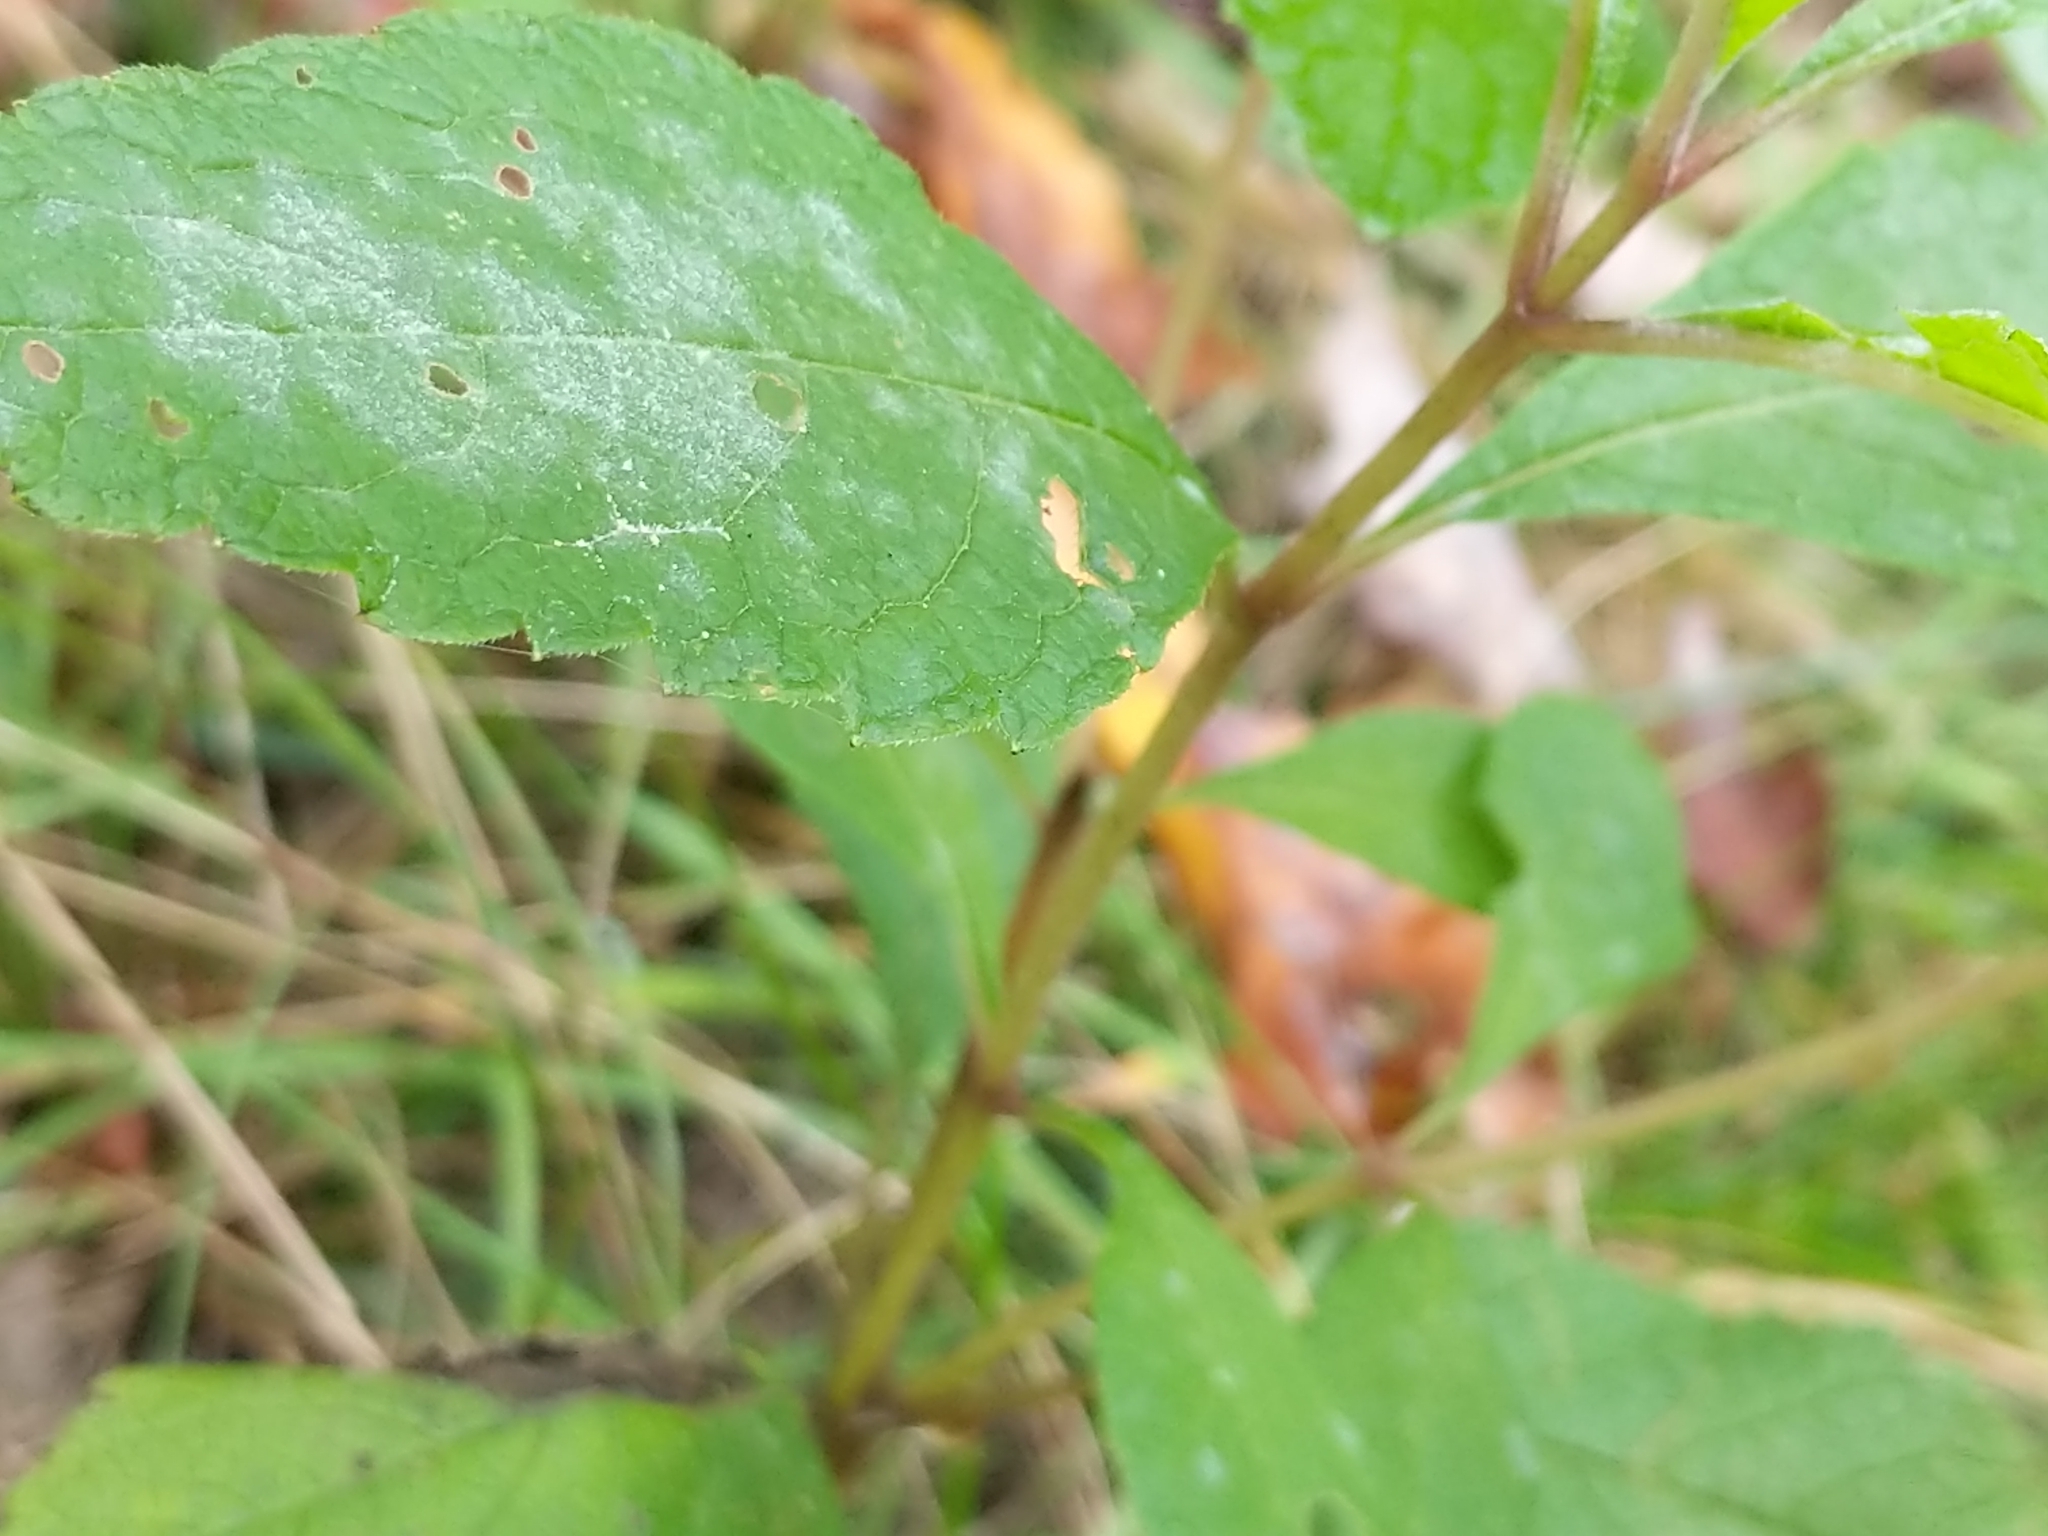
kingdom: Animalia
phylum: Arthropoda
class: Insecta
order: Diptera
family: Agromyzidae
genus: Calycomyza
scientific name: Calycomyza flavinotum
